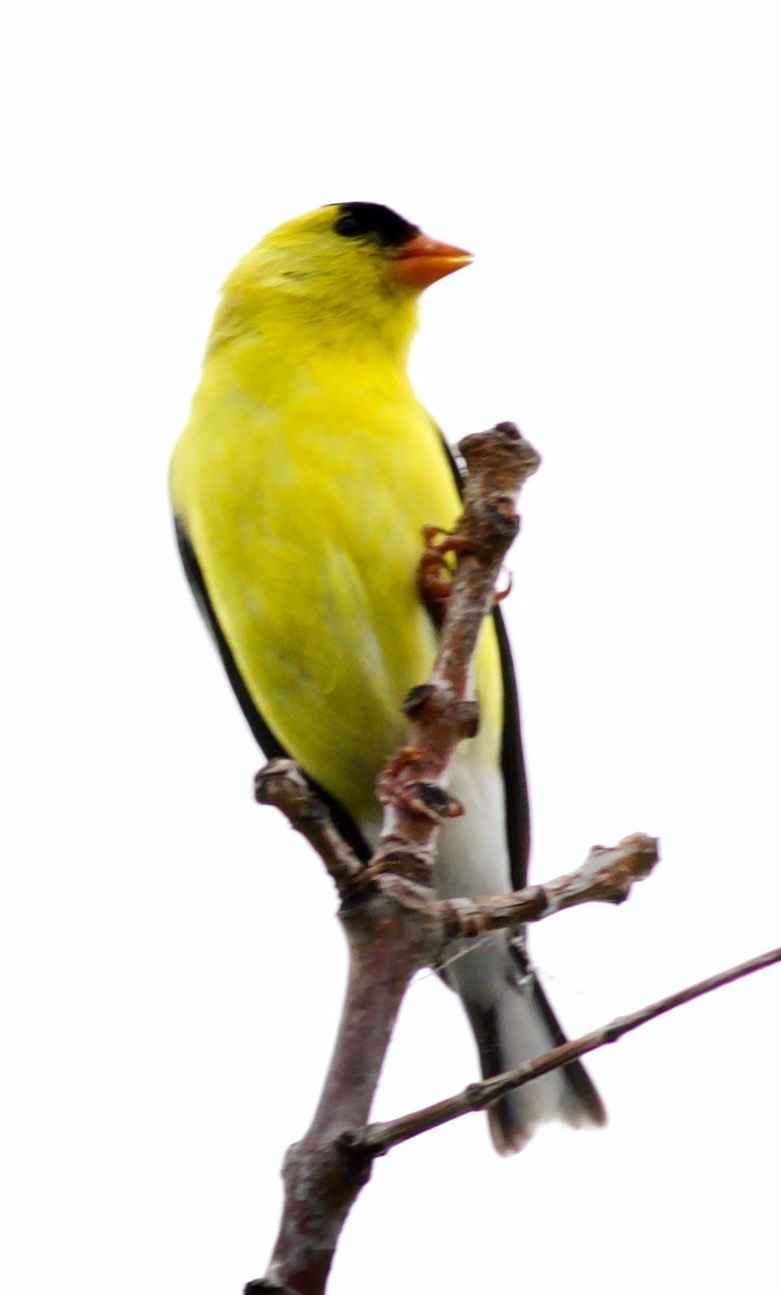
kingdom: Animalia
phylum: Chordata
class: Aves
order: Passeriformes
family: Fringillidae
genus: Spinus
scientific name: Spinus tristis
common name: American goldfinch
